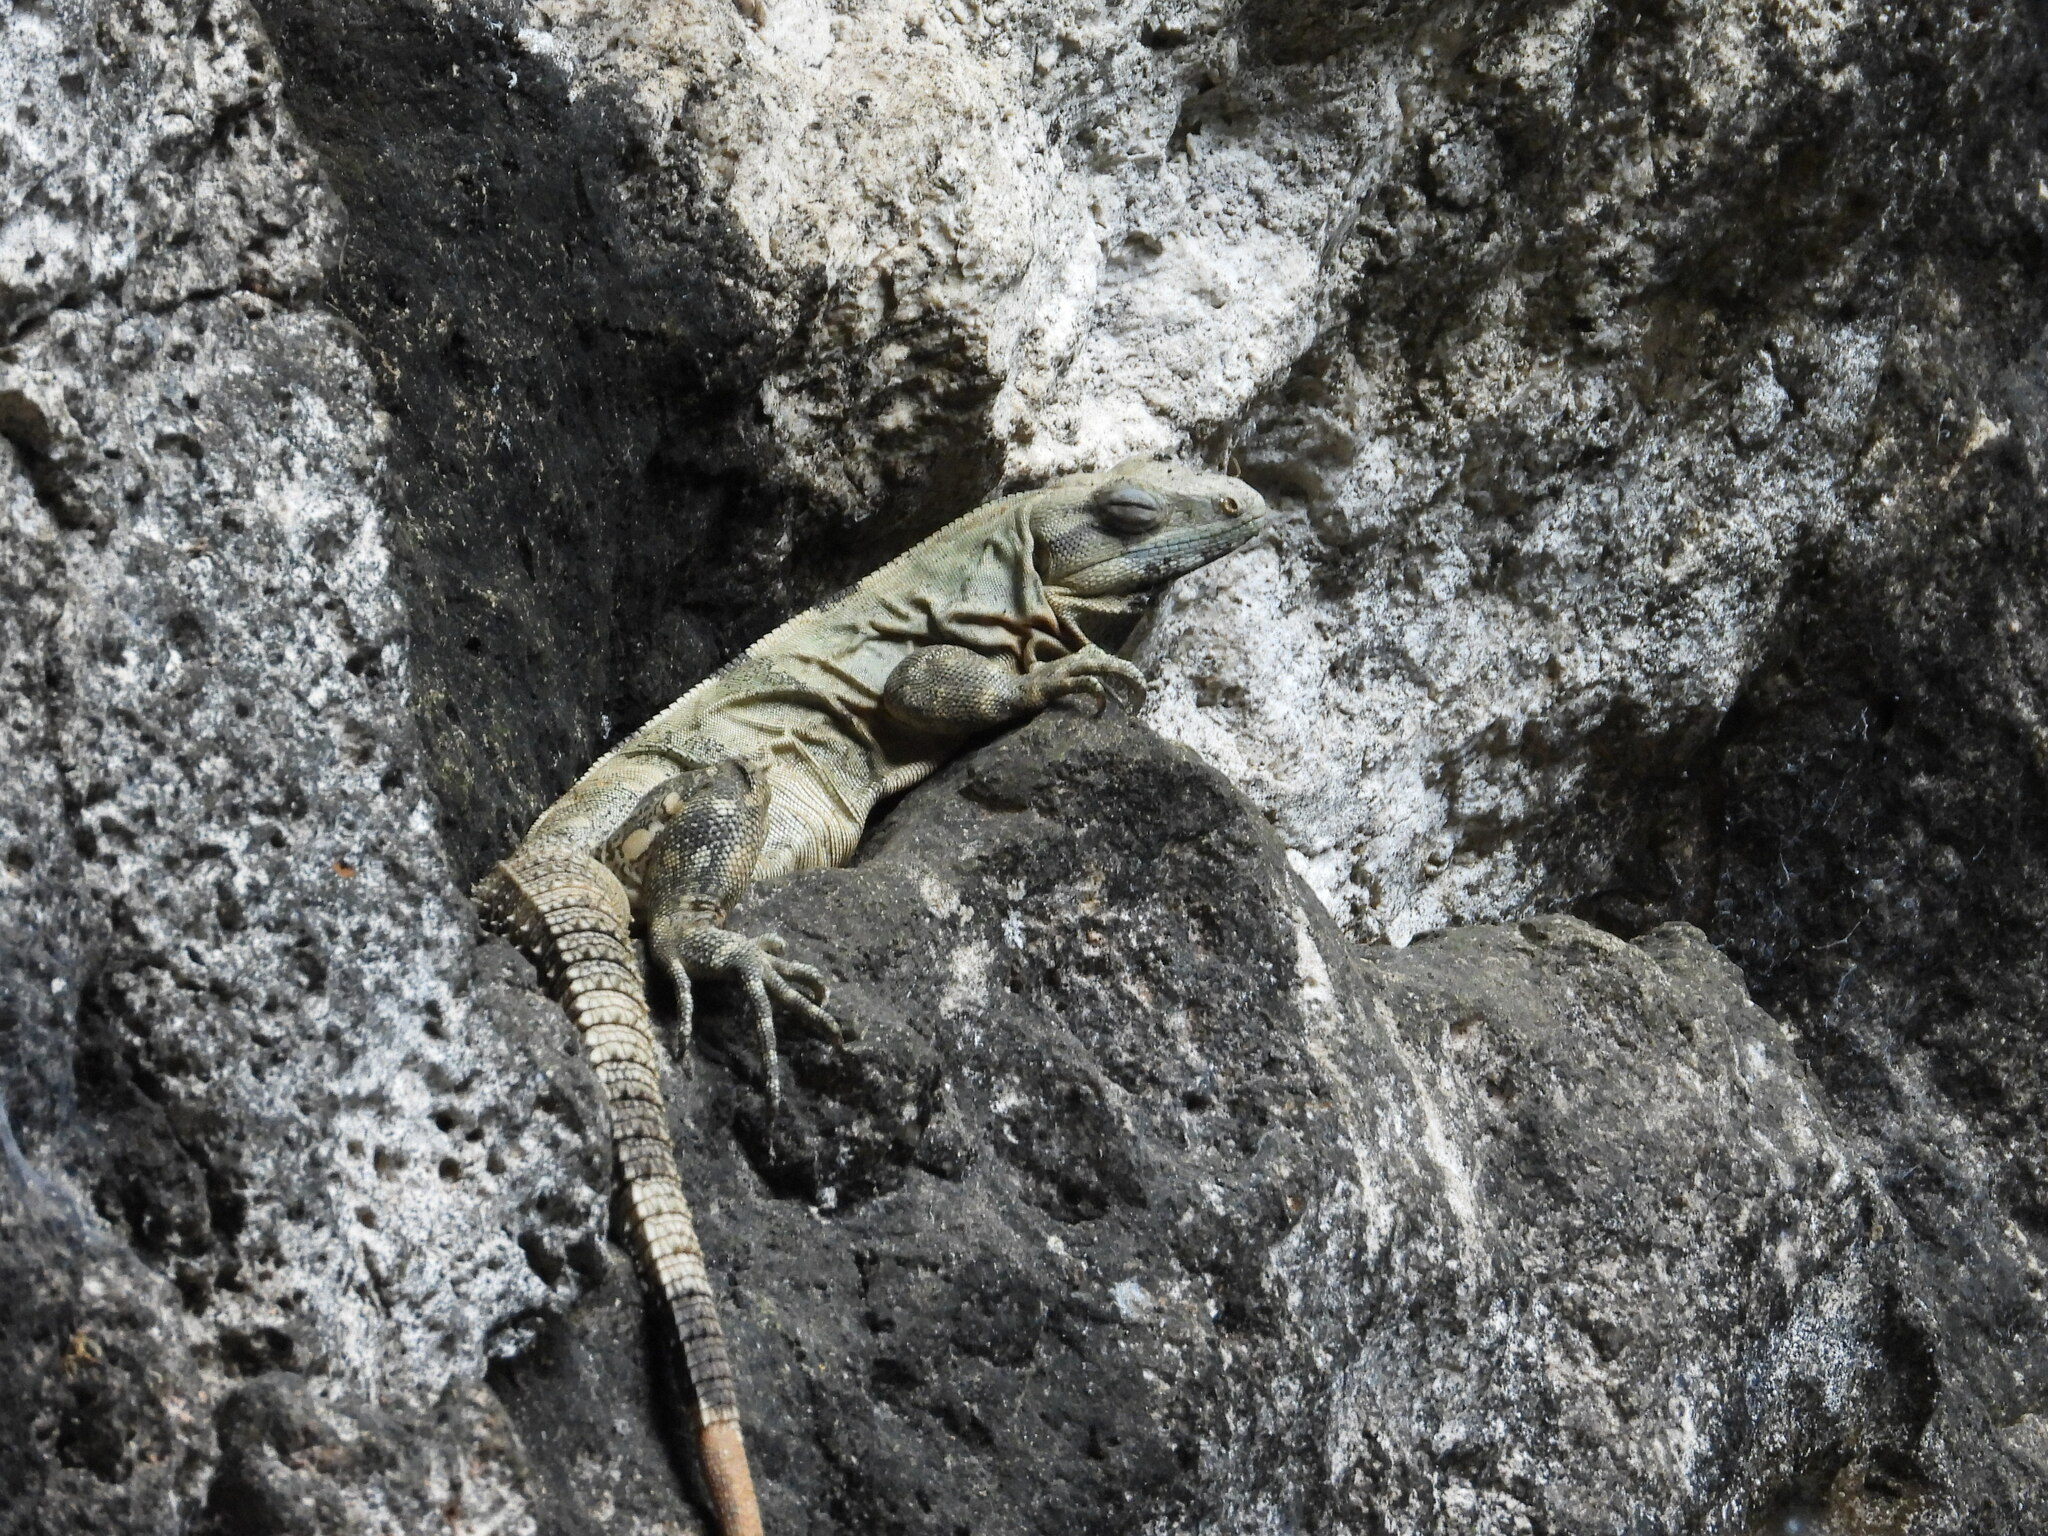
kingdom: Animalia
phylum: Chordata
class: Squamata
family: Iguanidae
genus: Ctenosaura
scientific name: Ctenosaura similis
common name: Black spiny-tailed iguana
